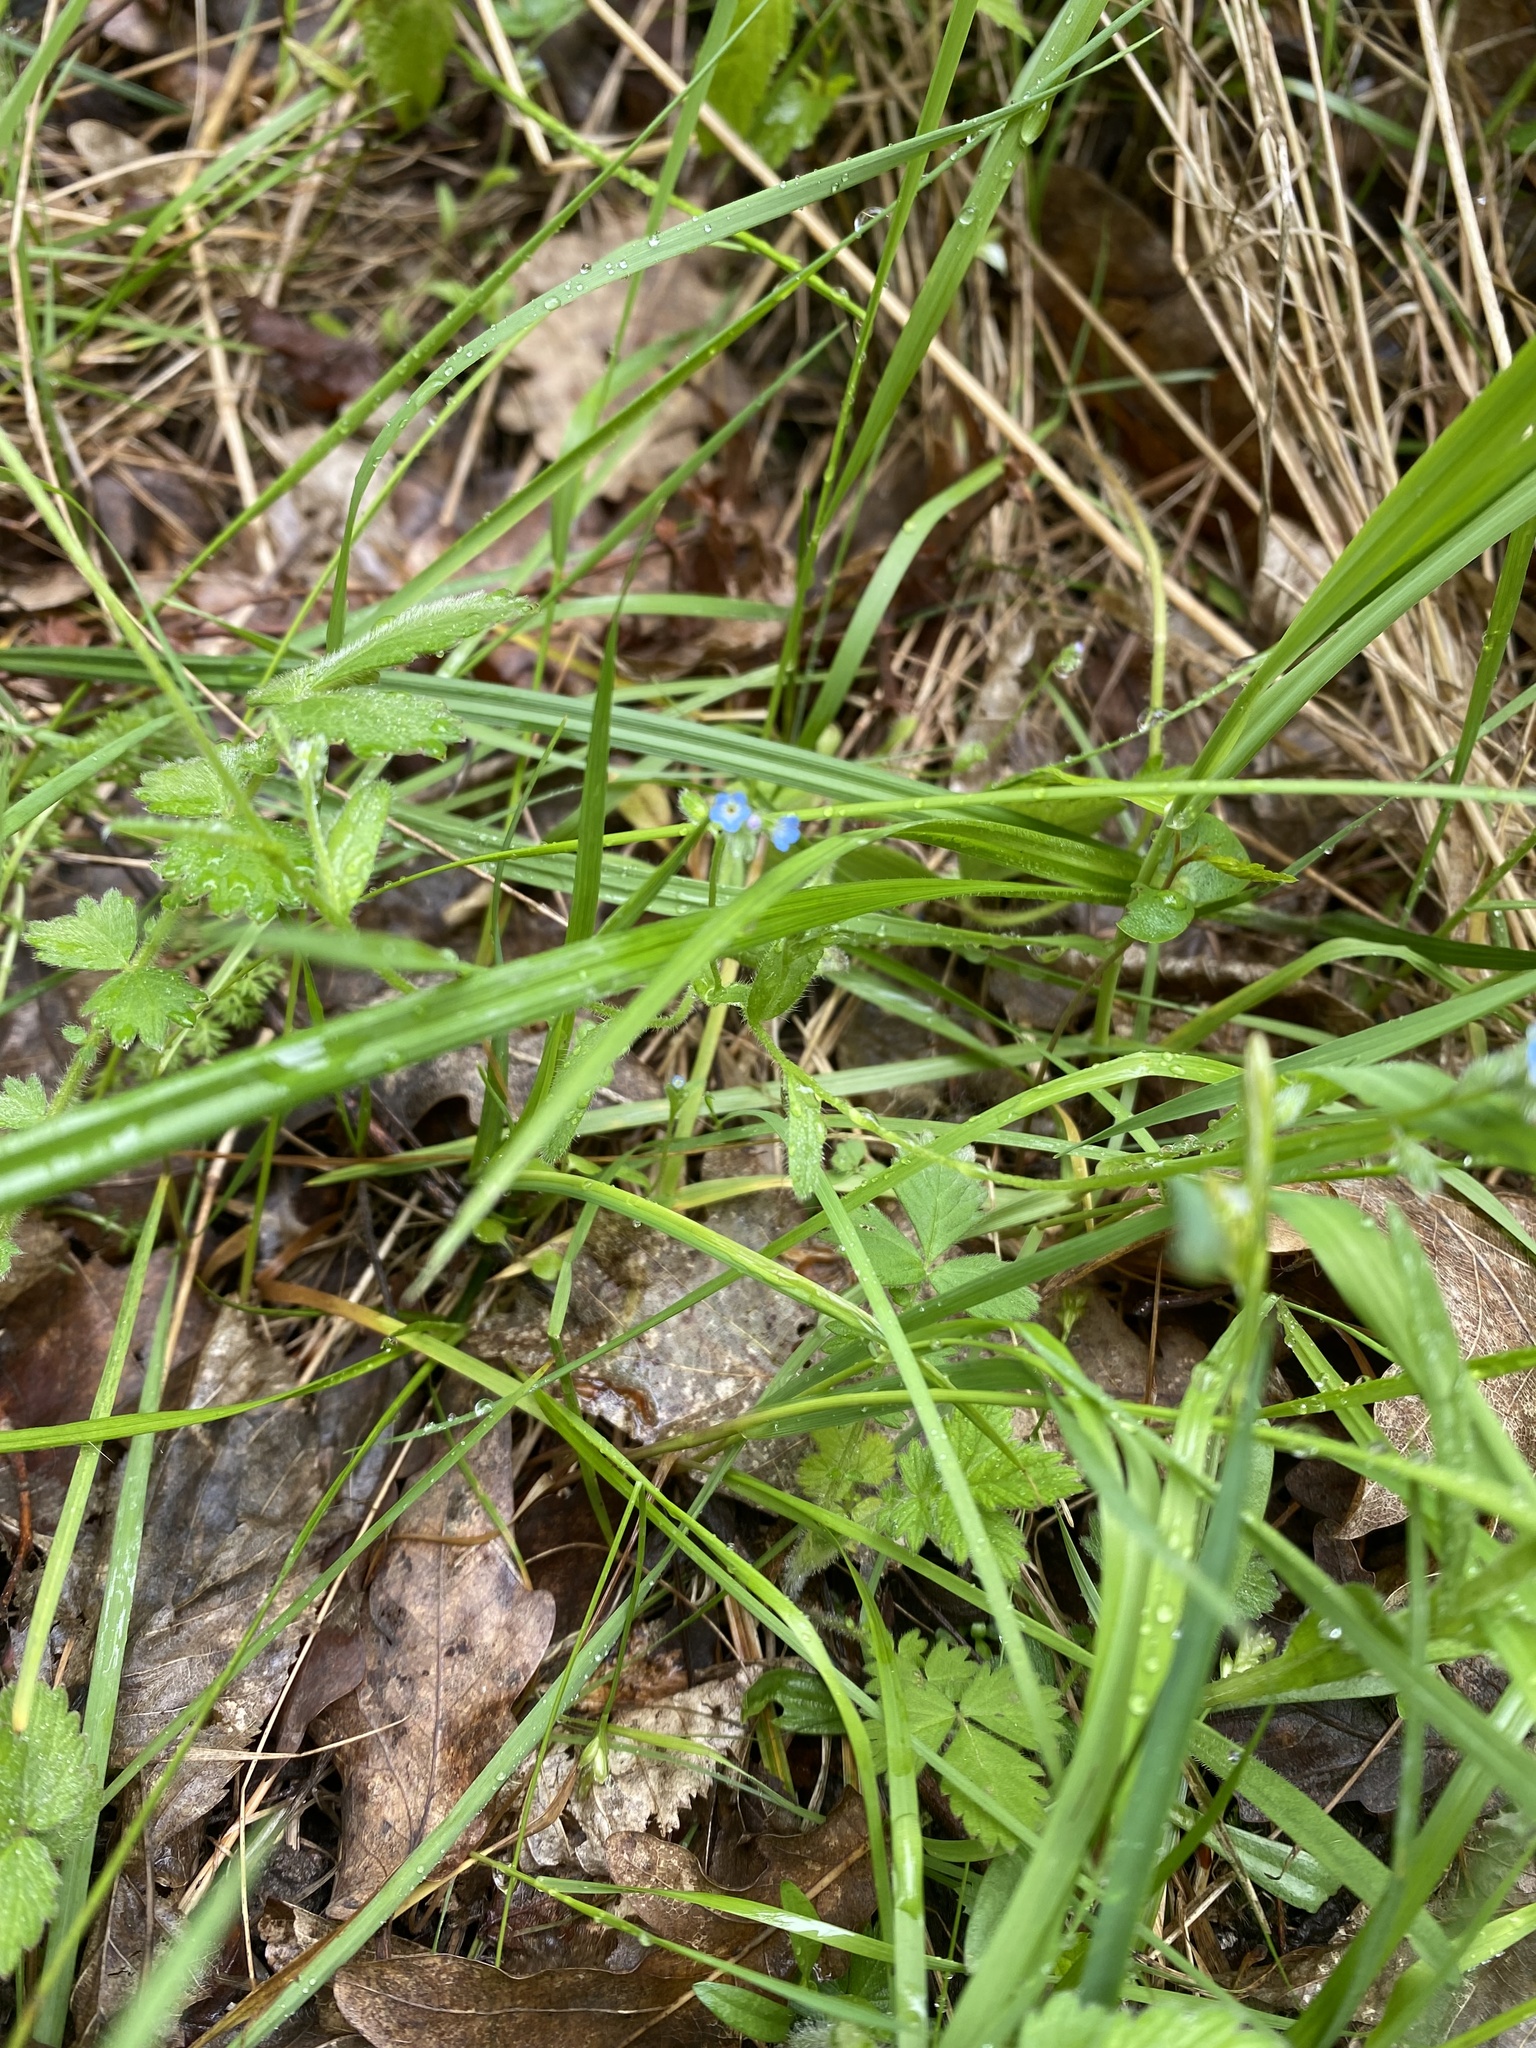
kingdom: Plantae
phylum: Tracheophyta
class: Magnoliopsida
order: Boraginales
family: Boraginaceae
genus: Myosotis
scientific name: Myosotis stricta
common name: Strict forget-me-not
